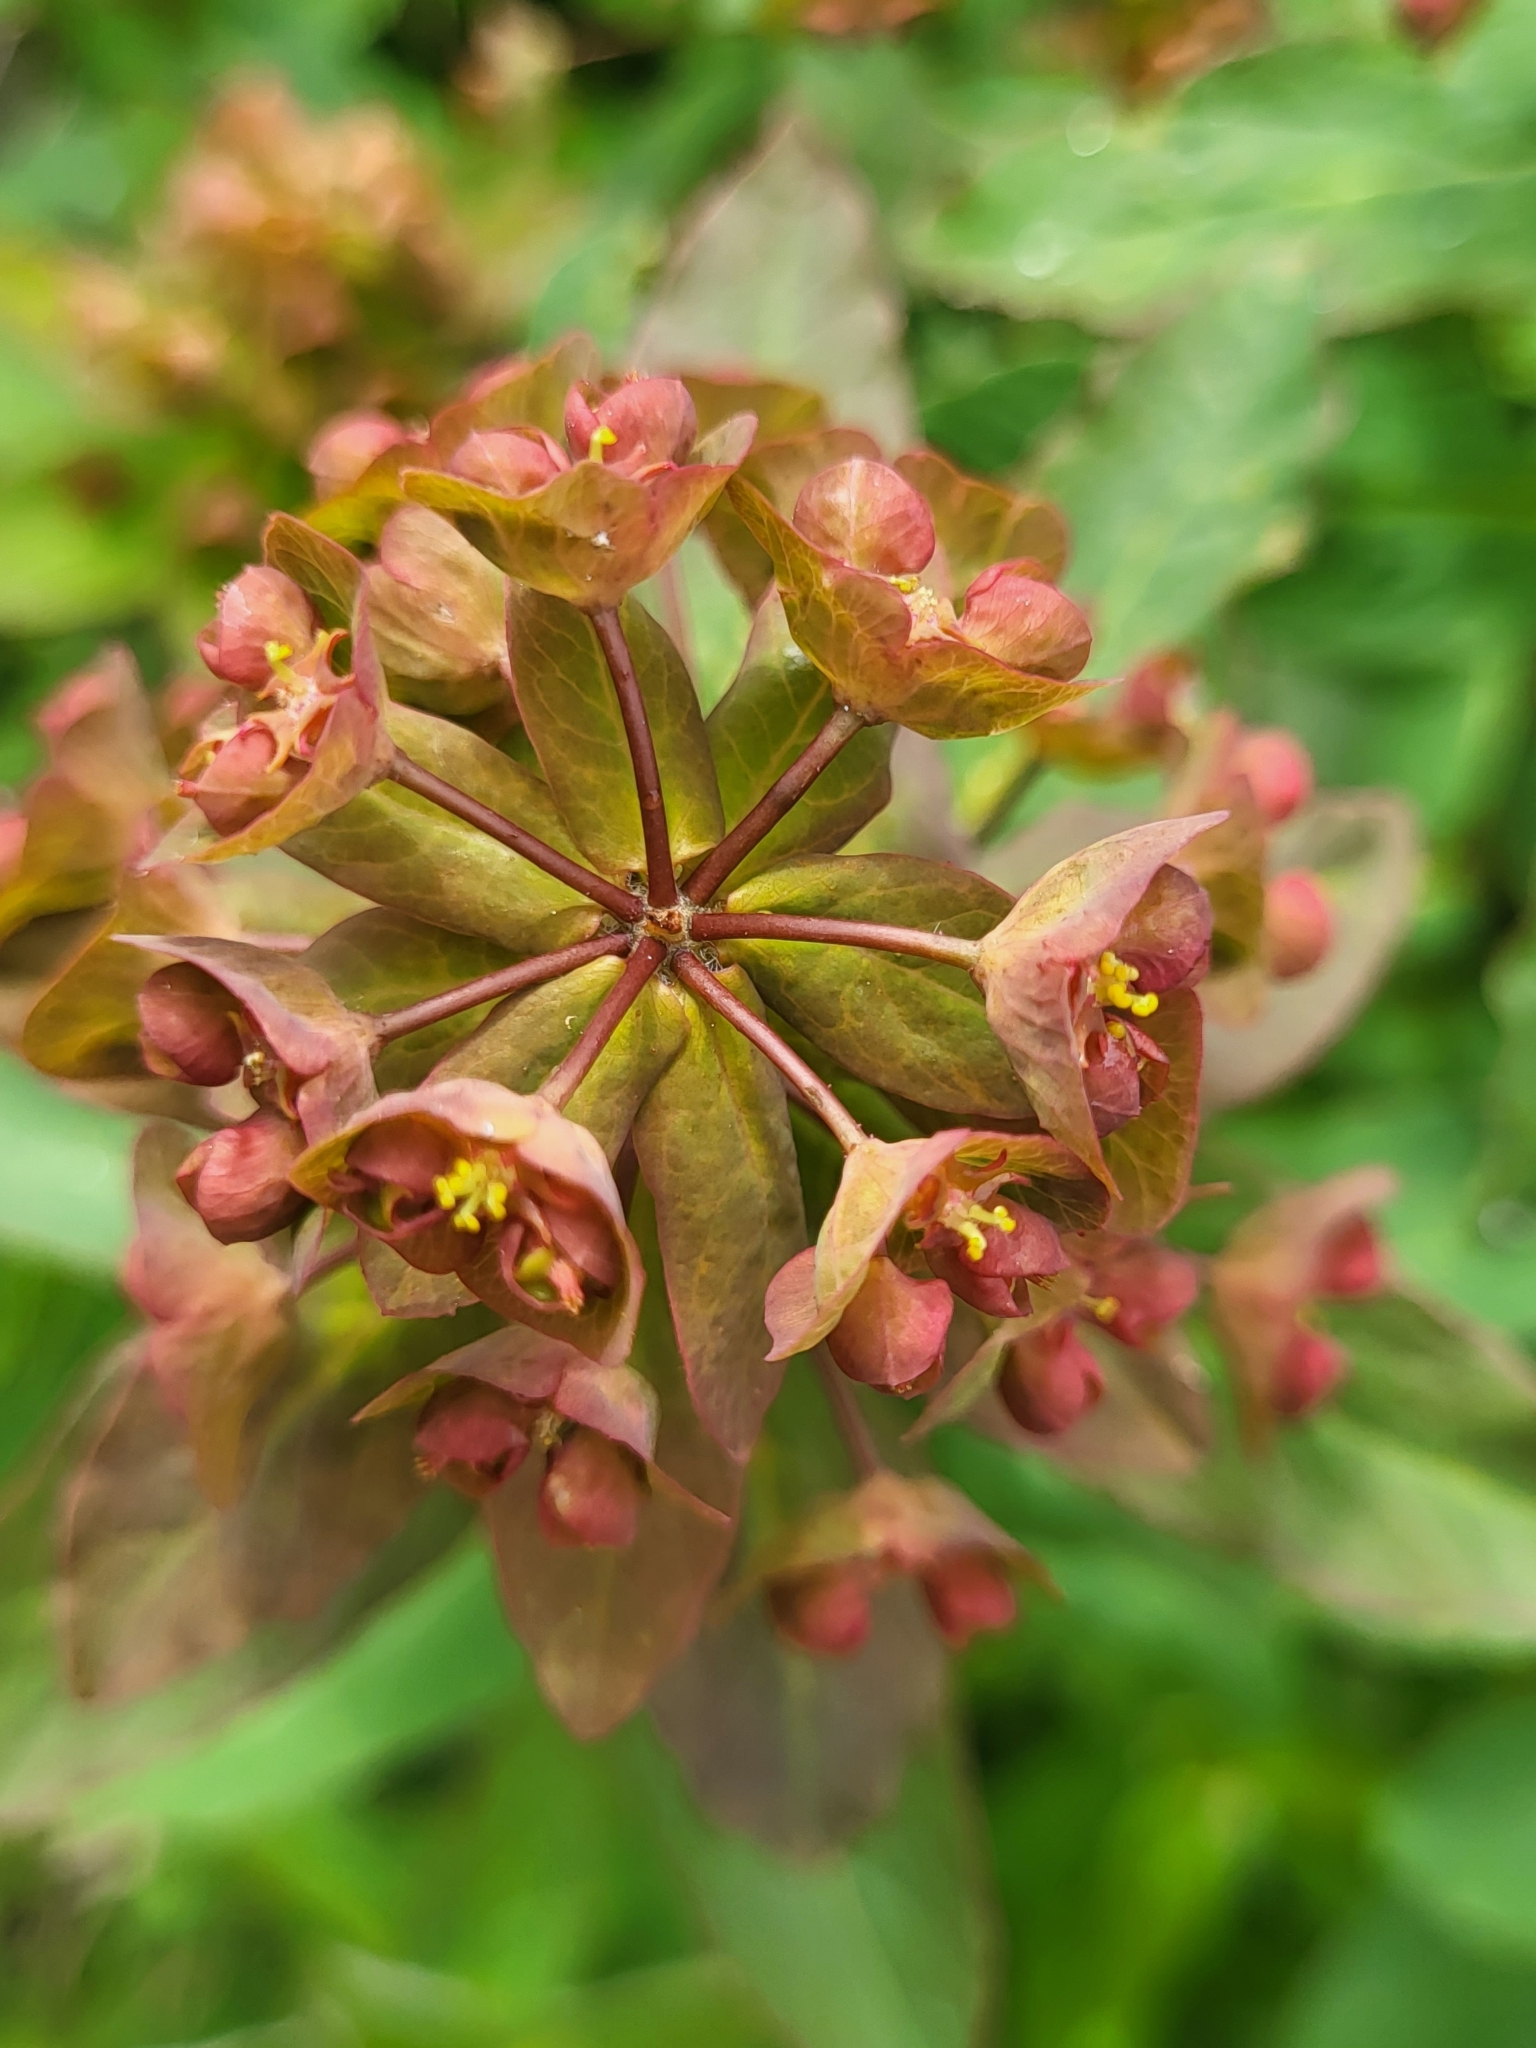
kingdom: Plantae
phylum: Tracheophyta
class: Magnoliopsida
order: Malpighiales
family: Euphorbiaceae
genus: Euphorbia
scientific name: Euphorbia oblongifolia
